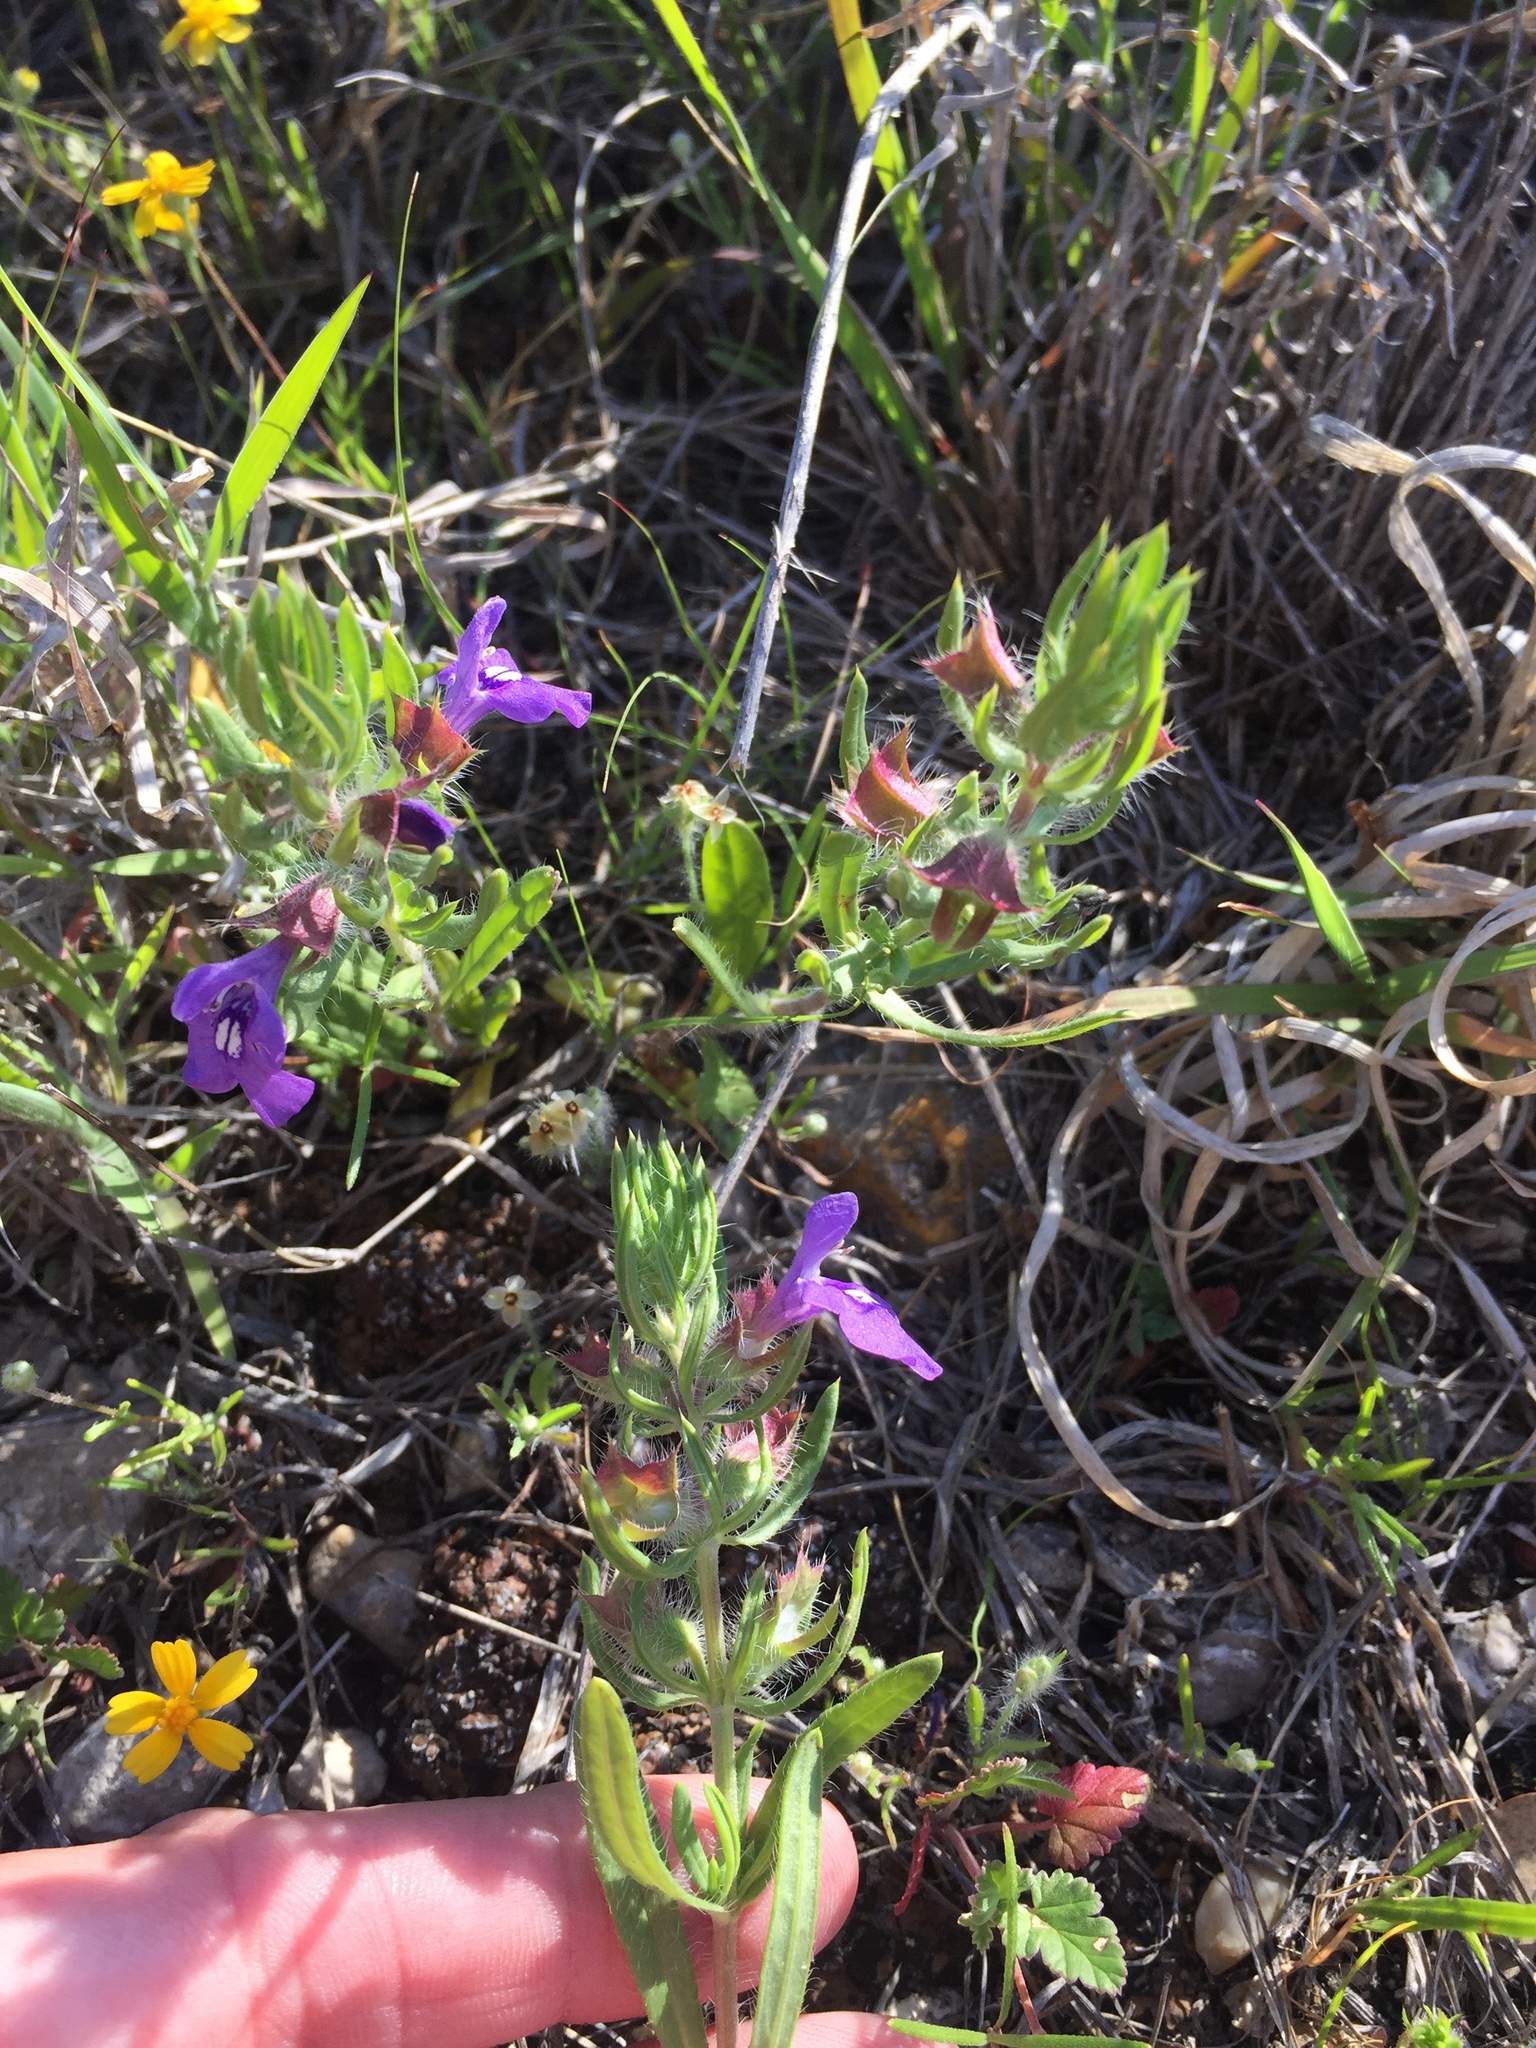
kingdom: Plantae
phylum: Tracheophyta
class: Magnoliopsida
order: Lamiales
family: Lamiaceae
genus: Salvia
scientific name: Salvia texana
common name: Texas sage
